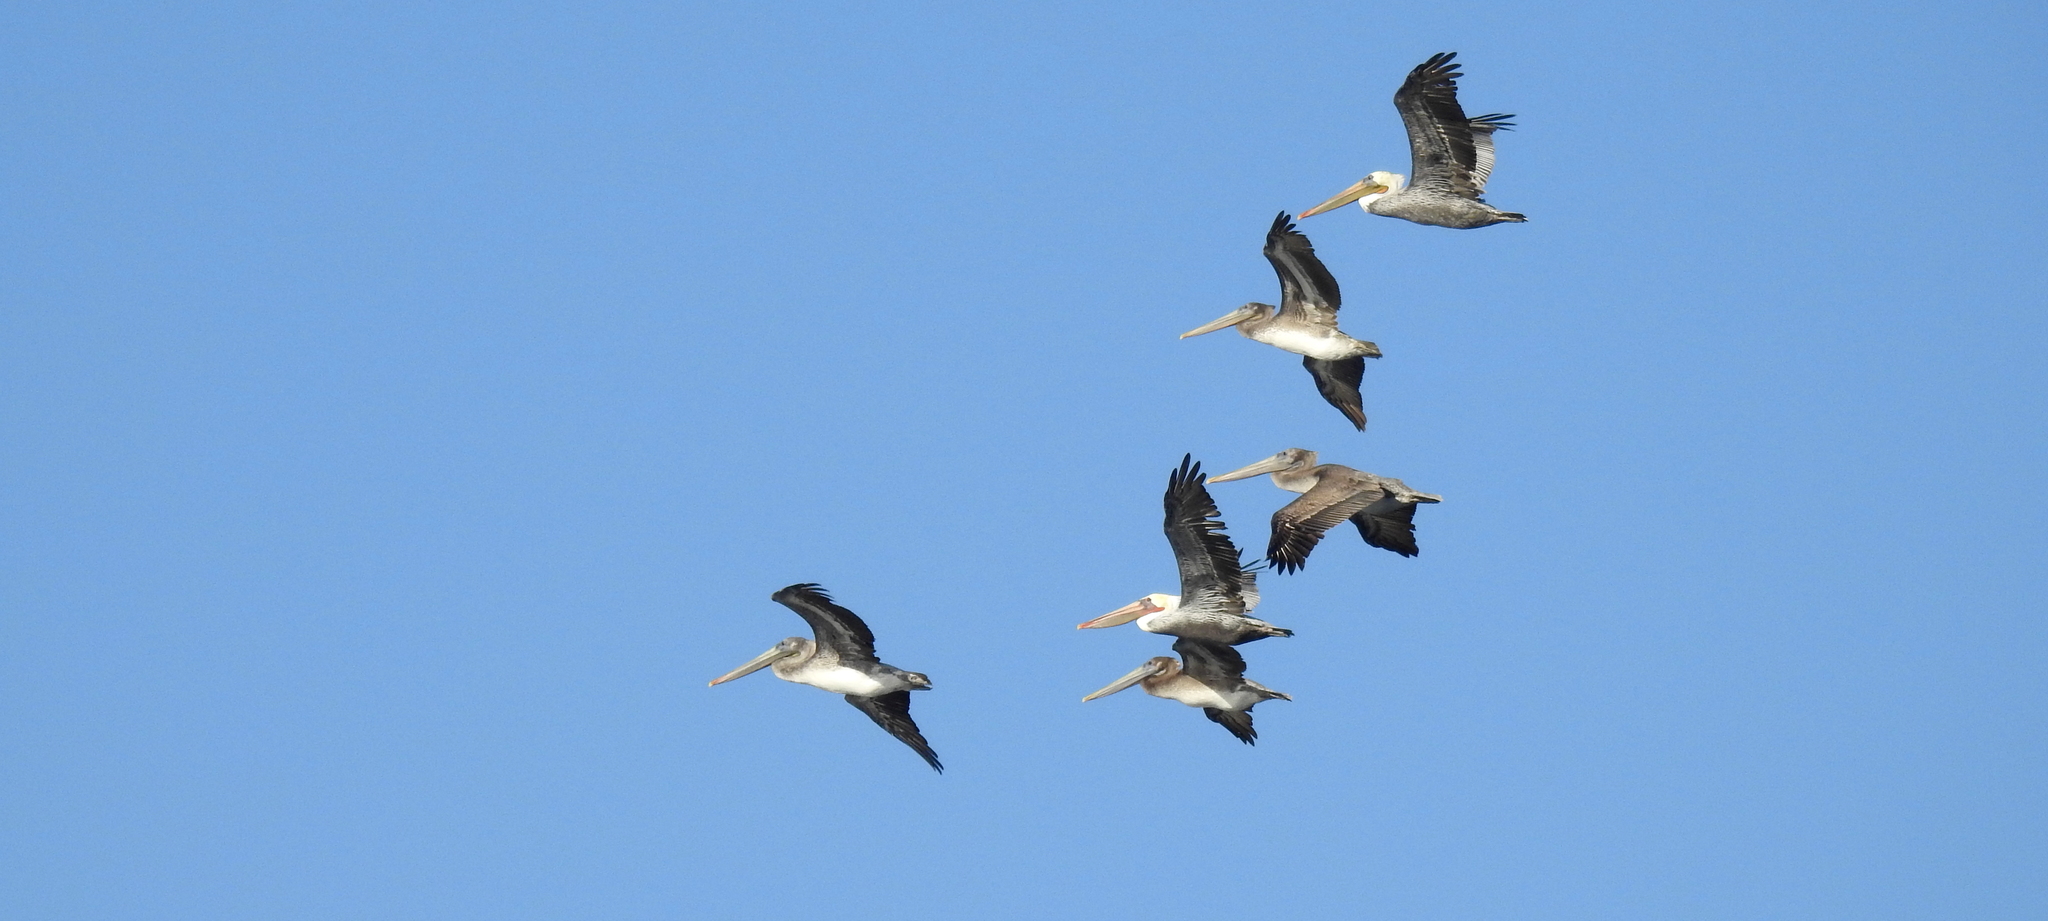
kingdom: Animalia
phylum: Chordata
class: Aves
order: Pelecaniformes
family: Pelecanidae
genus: Pelecanus
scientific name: Pelecanus occidentalis
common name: Brown pelican
